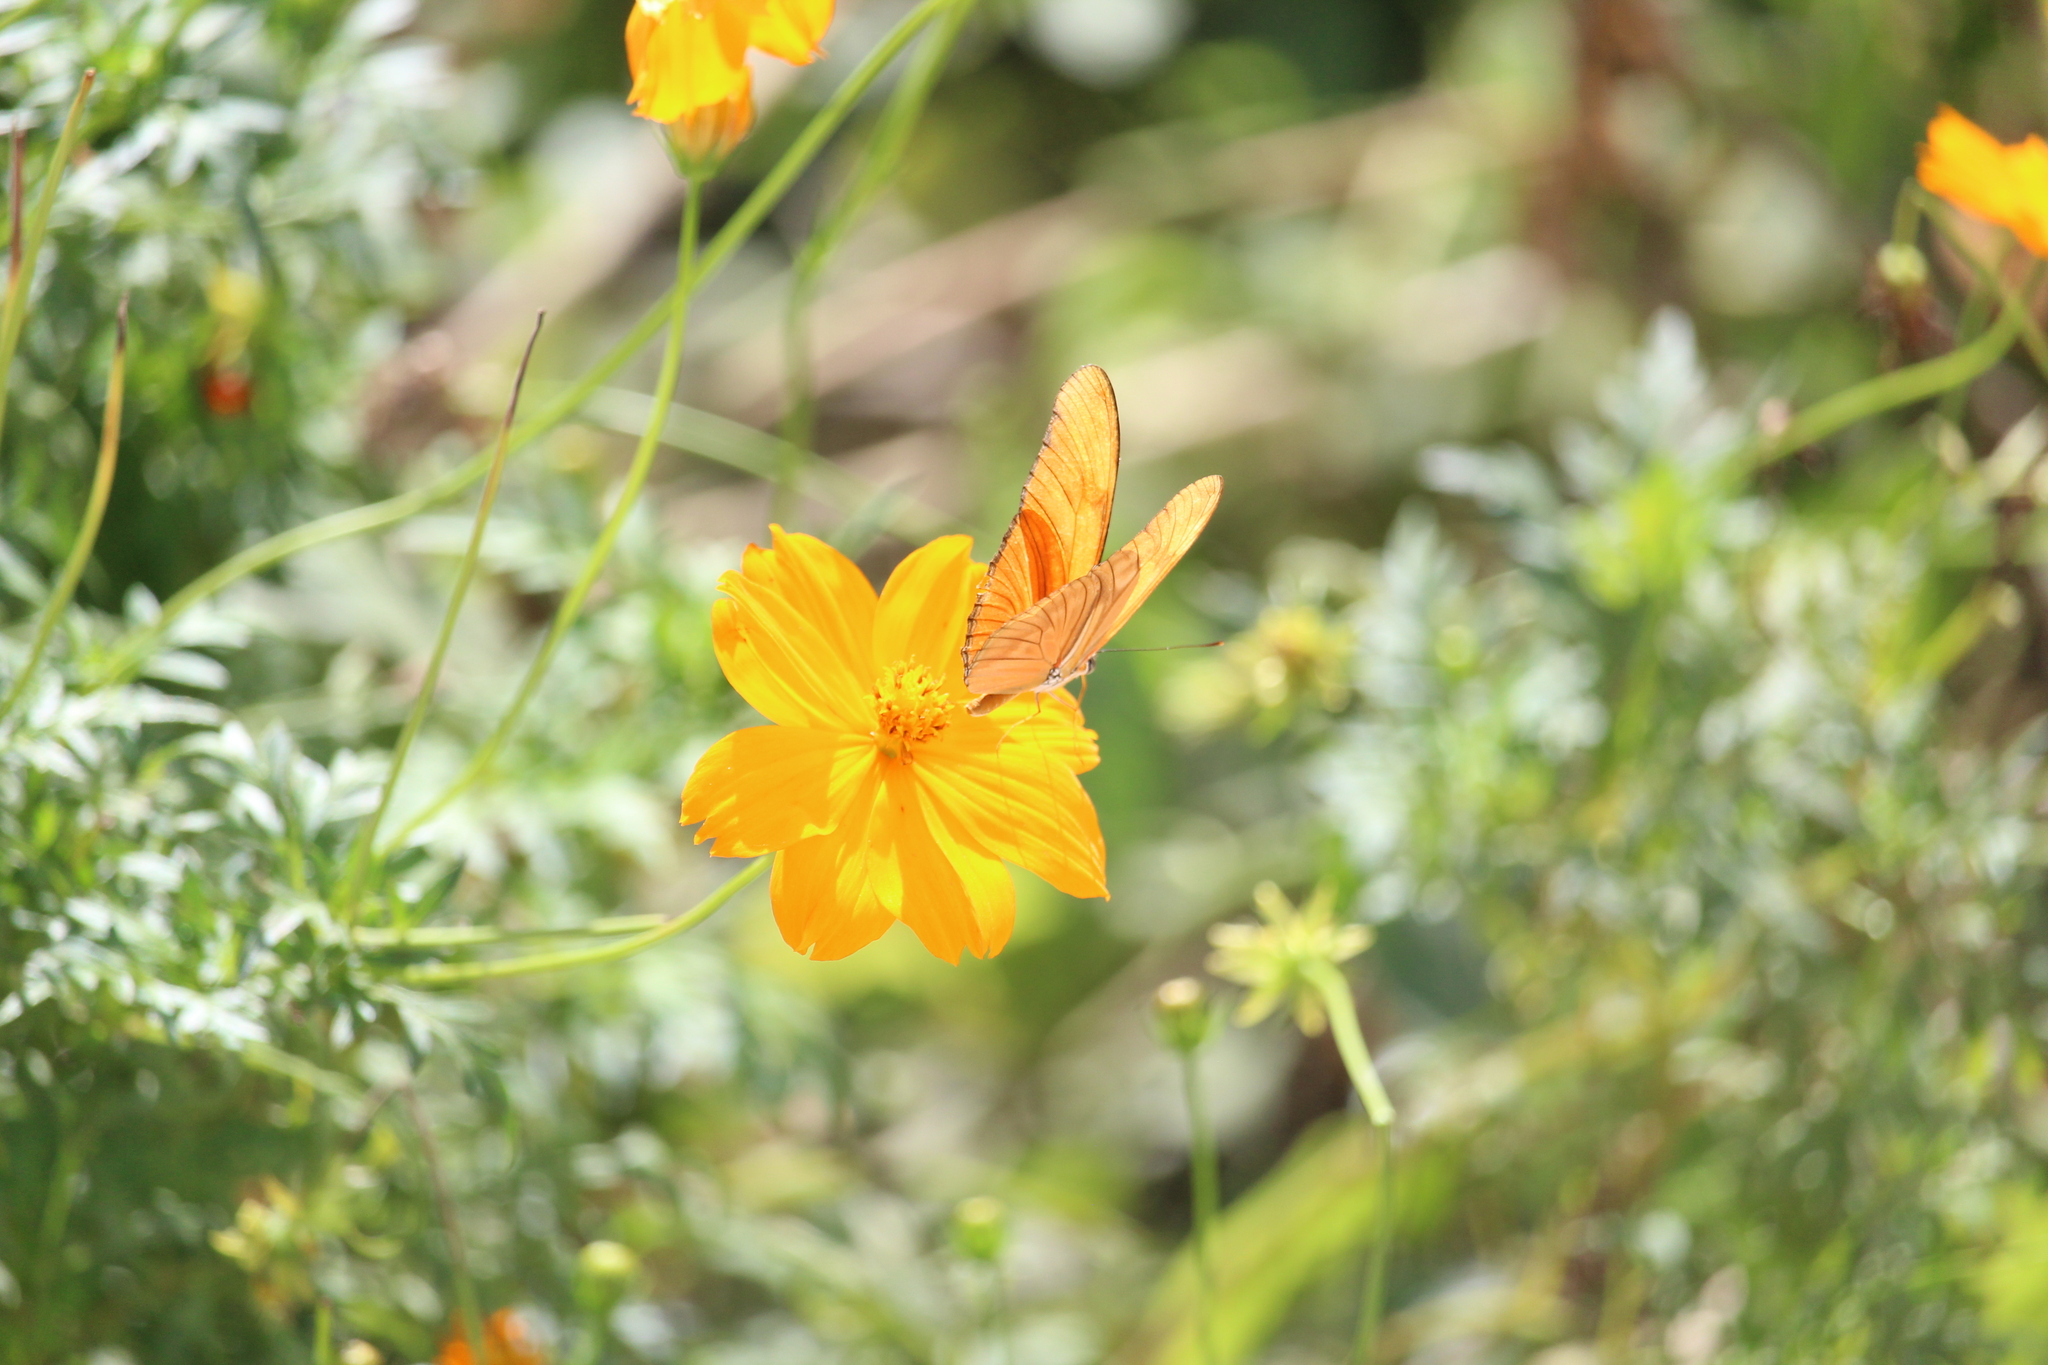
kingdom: Animalia
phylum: Arthropoda
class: Insecta
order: Lepidoptera
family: Nymphalidae
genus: Dryas
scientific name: Dryas iulia
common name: Flambeau
